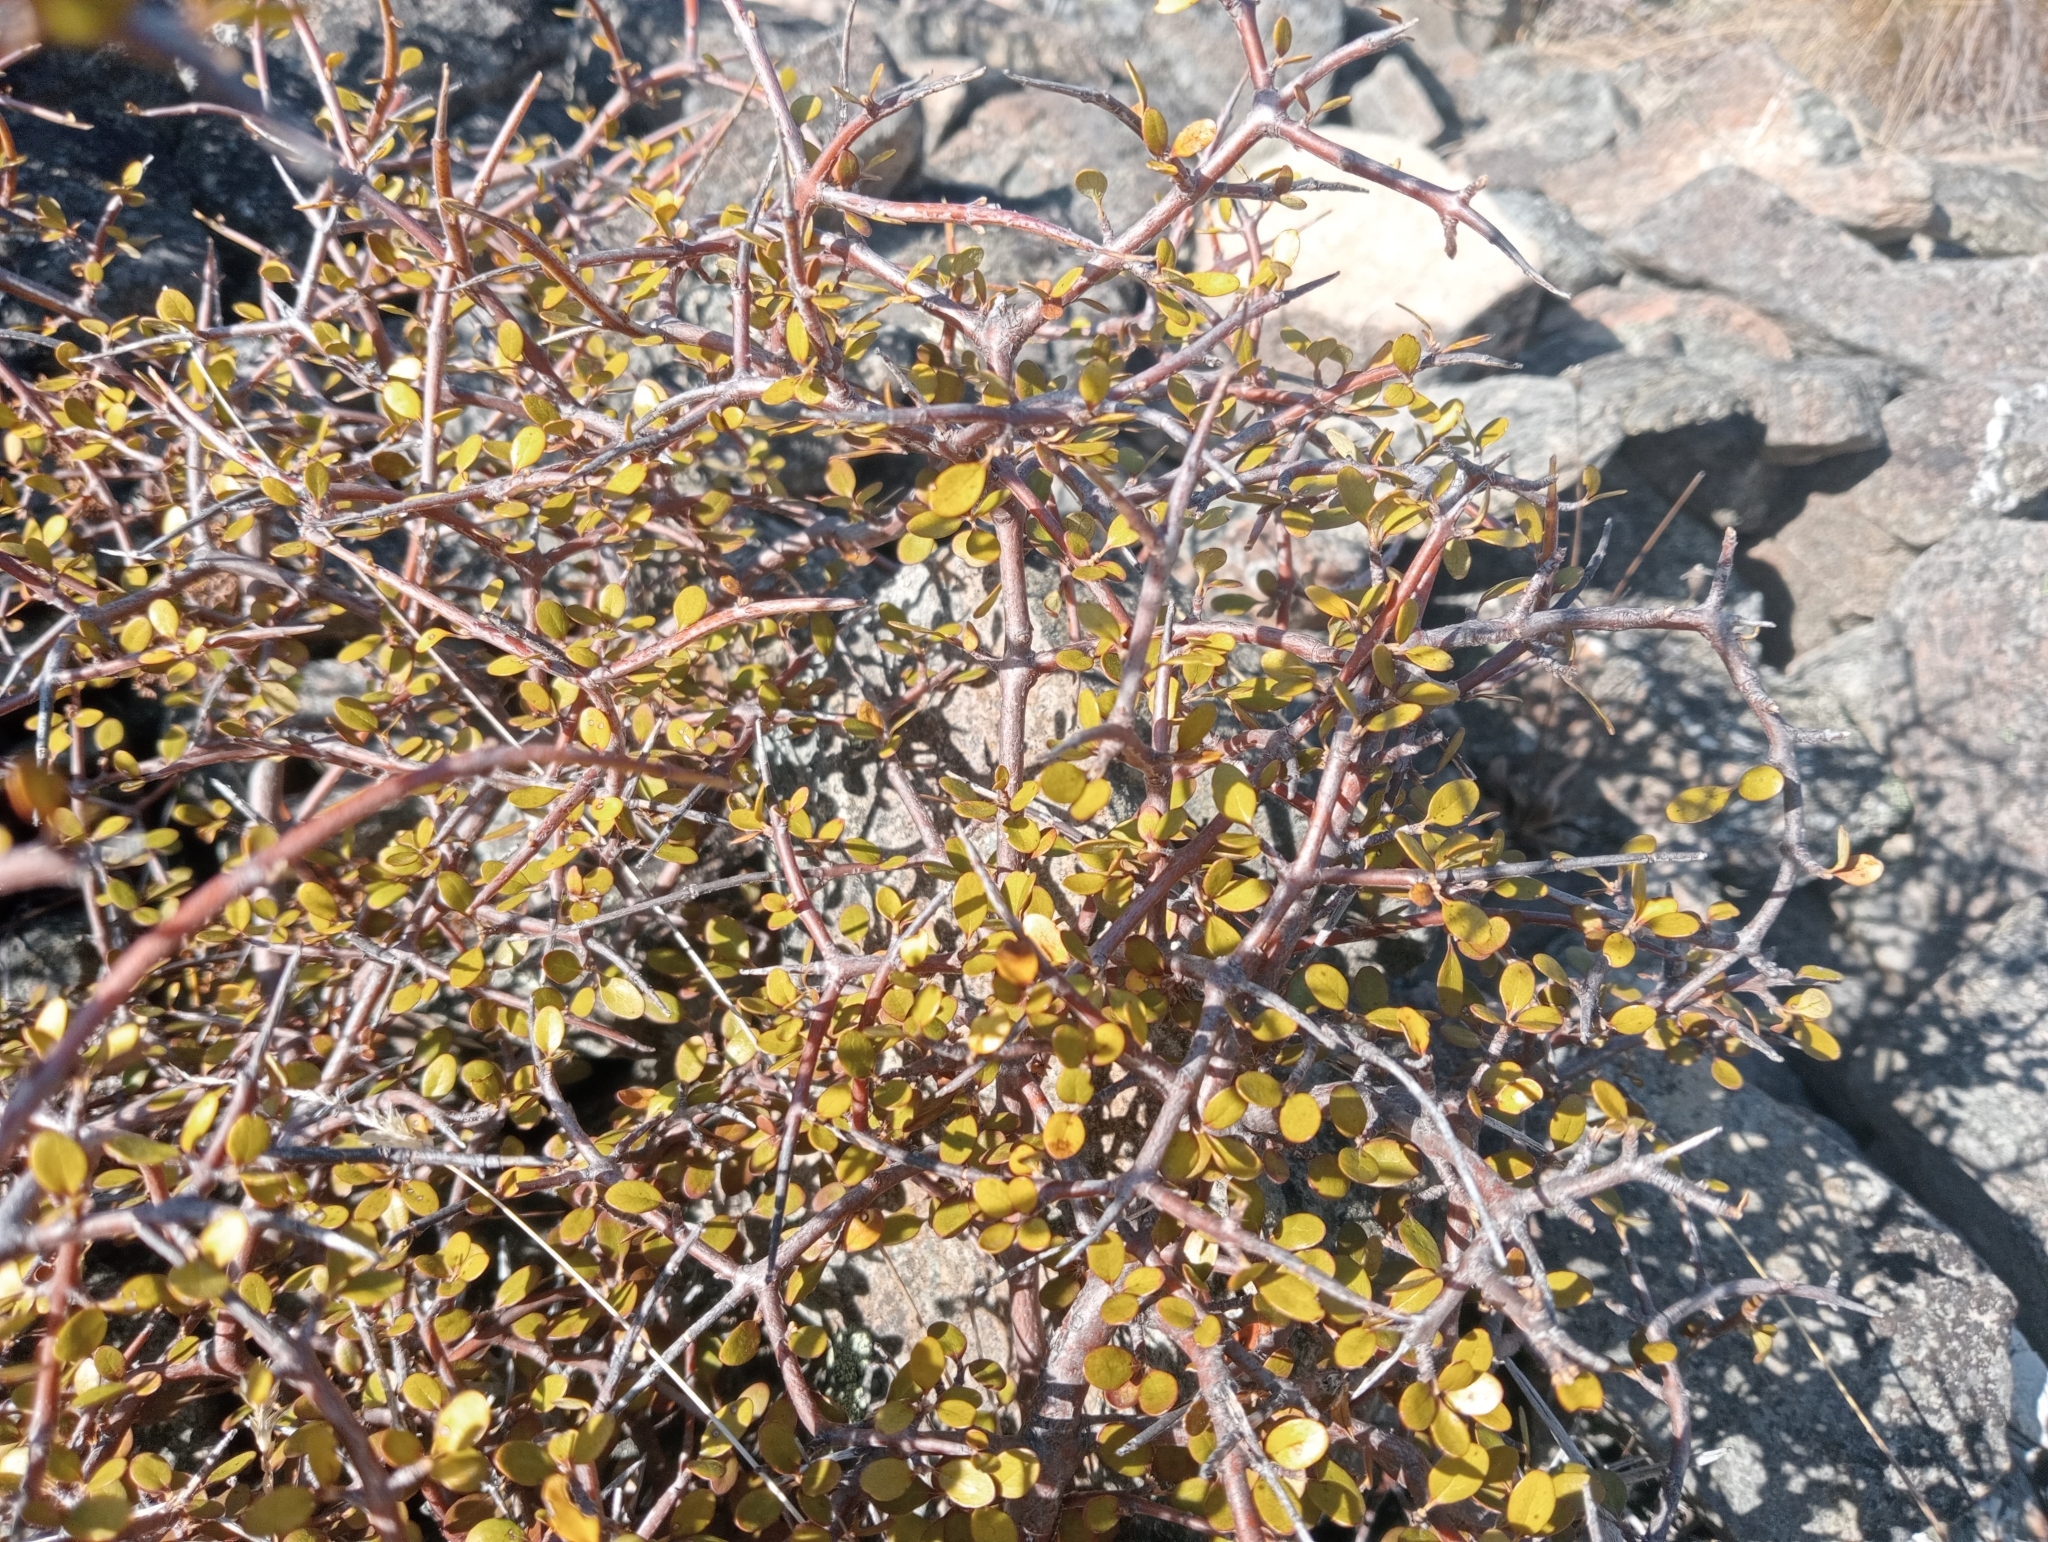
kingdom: Plantae
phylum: Tracheophyta
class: Magnoliopsida
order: Oxalidales
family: Elaeocarpaceae
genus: Aristotelia
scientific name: Aristotelia fruticosa
